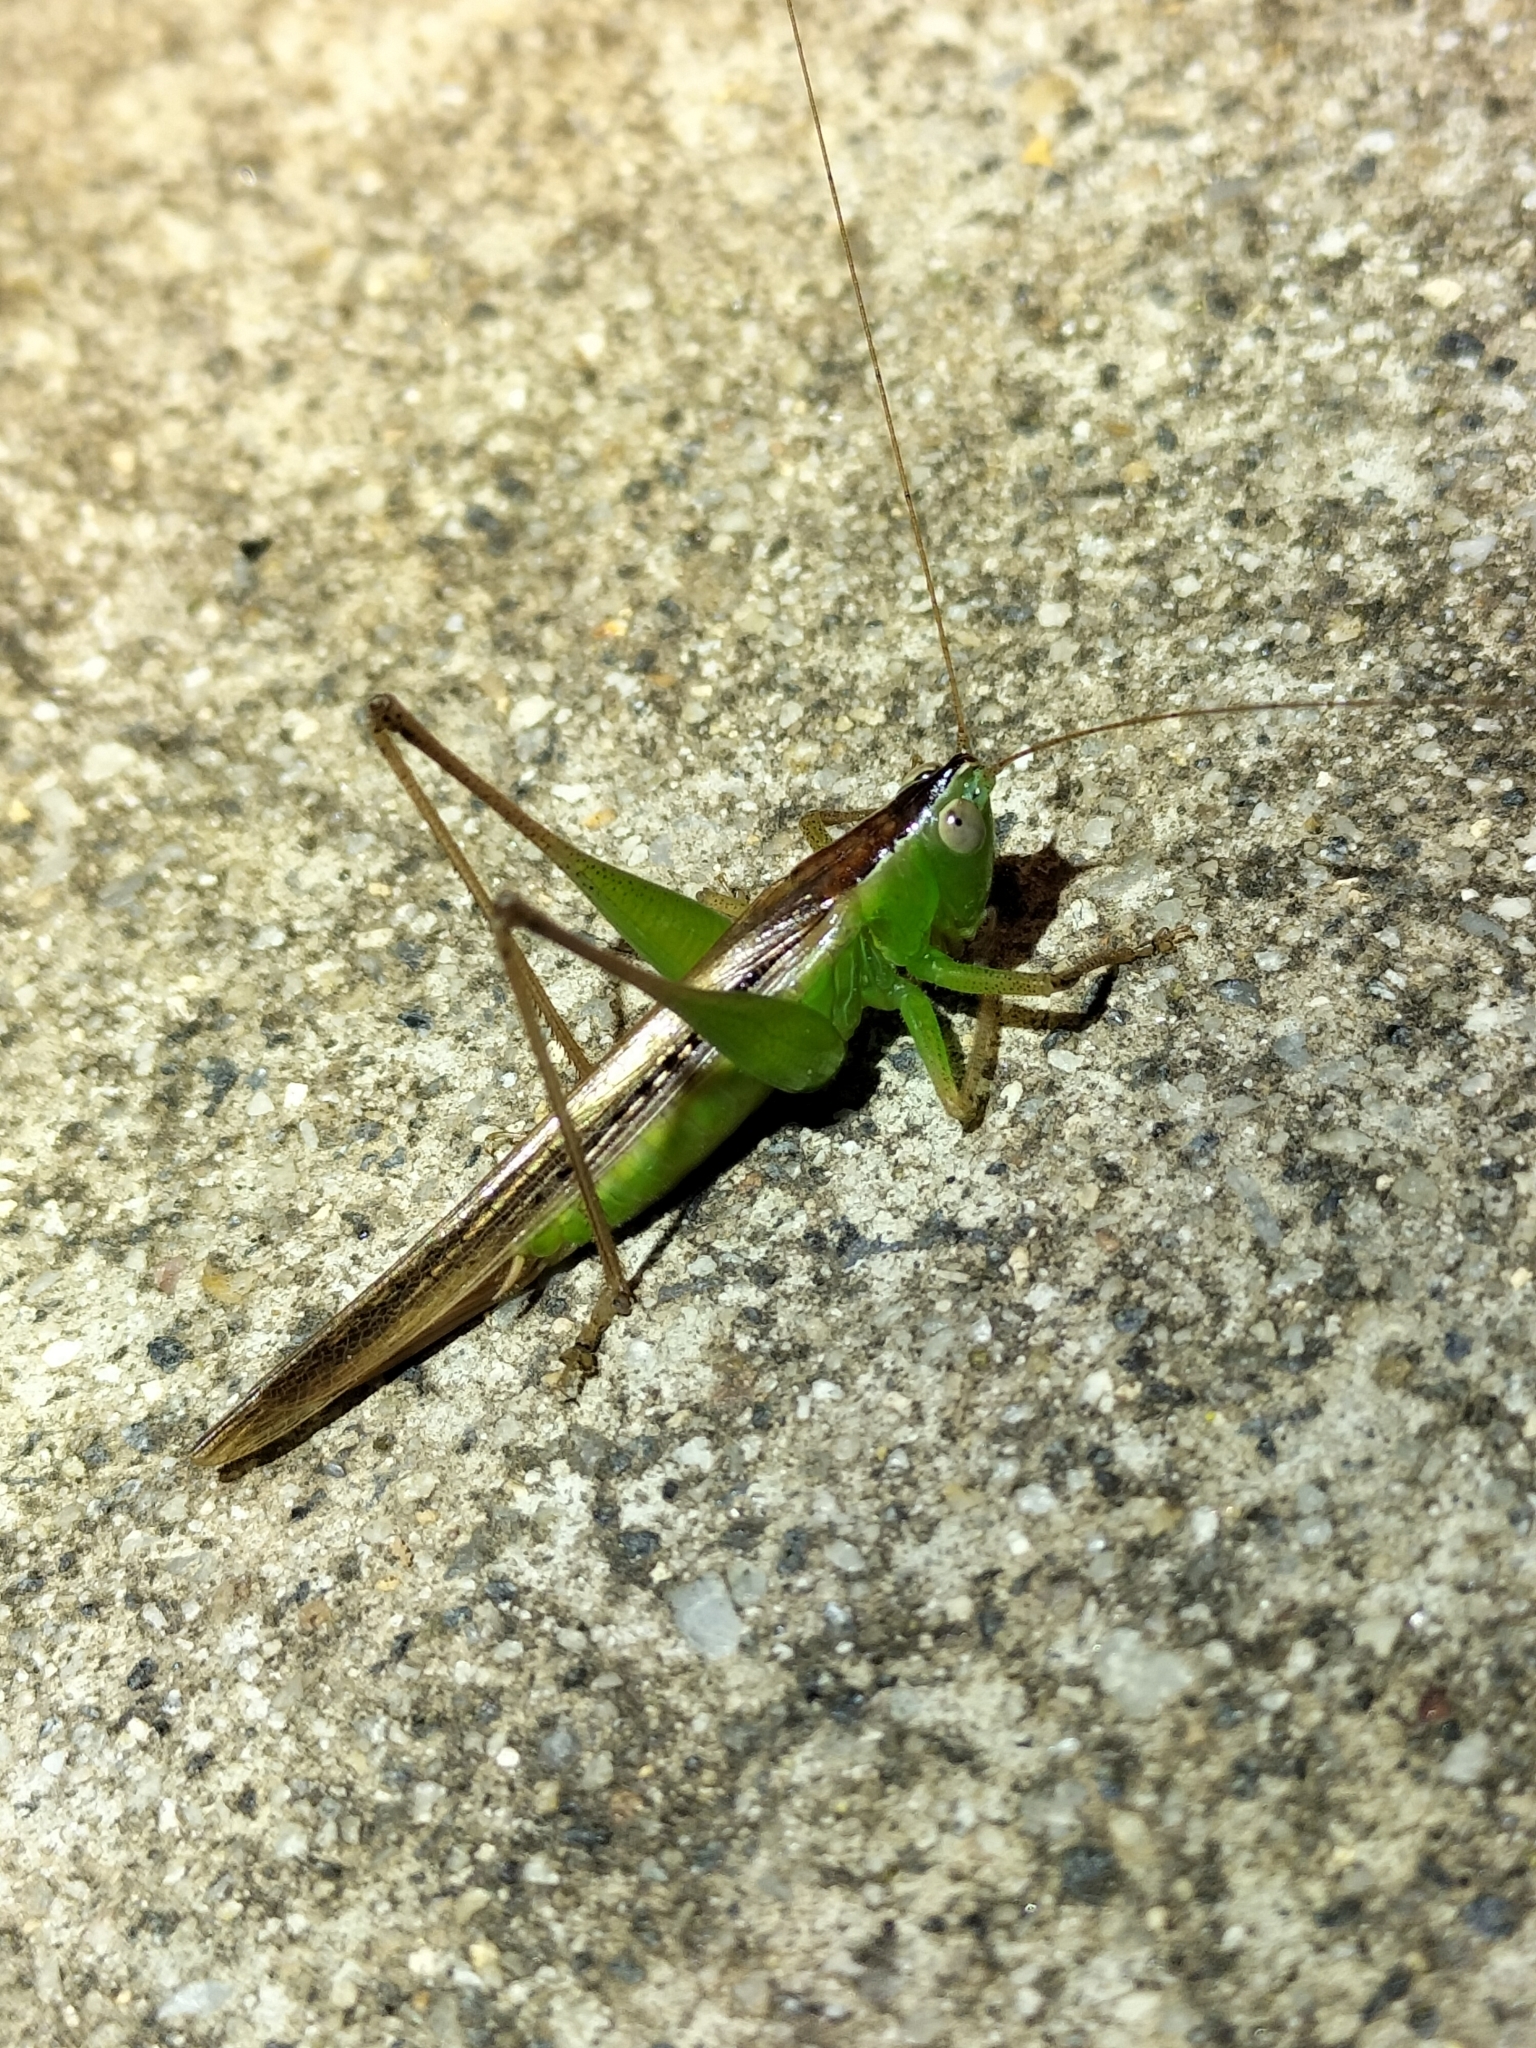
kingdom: Animalia
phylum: Arthropoda
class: Insecta
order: Orthoptera
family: Tettigoniidae
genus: Conocephalus
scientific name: Conocephalus maculatus
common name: Spotted meadow katydid
